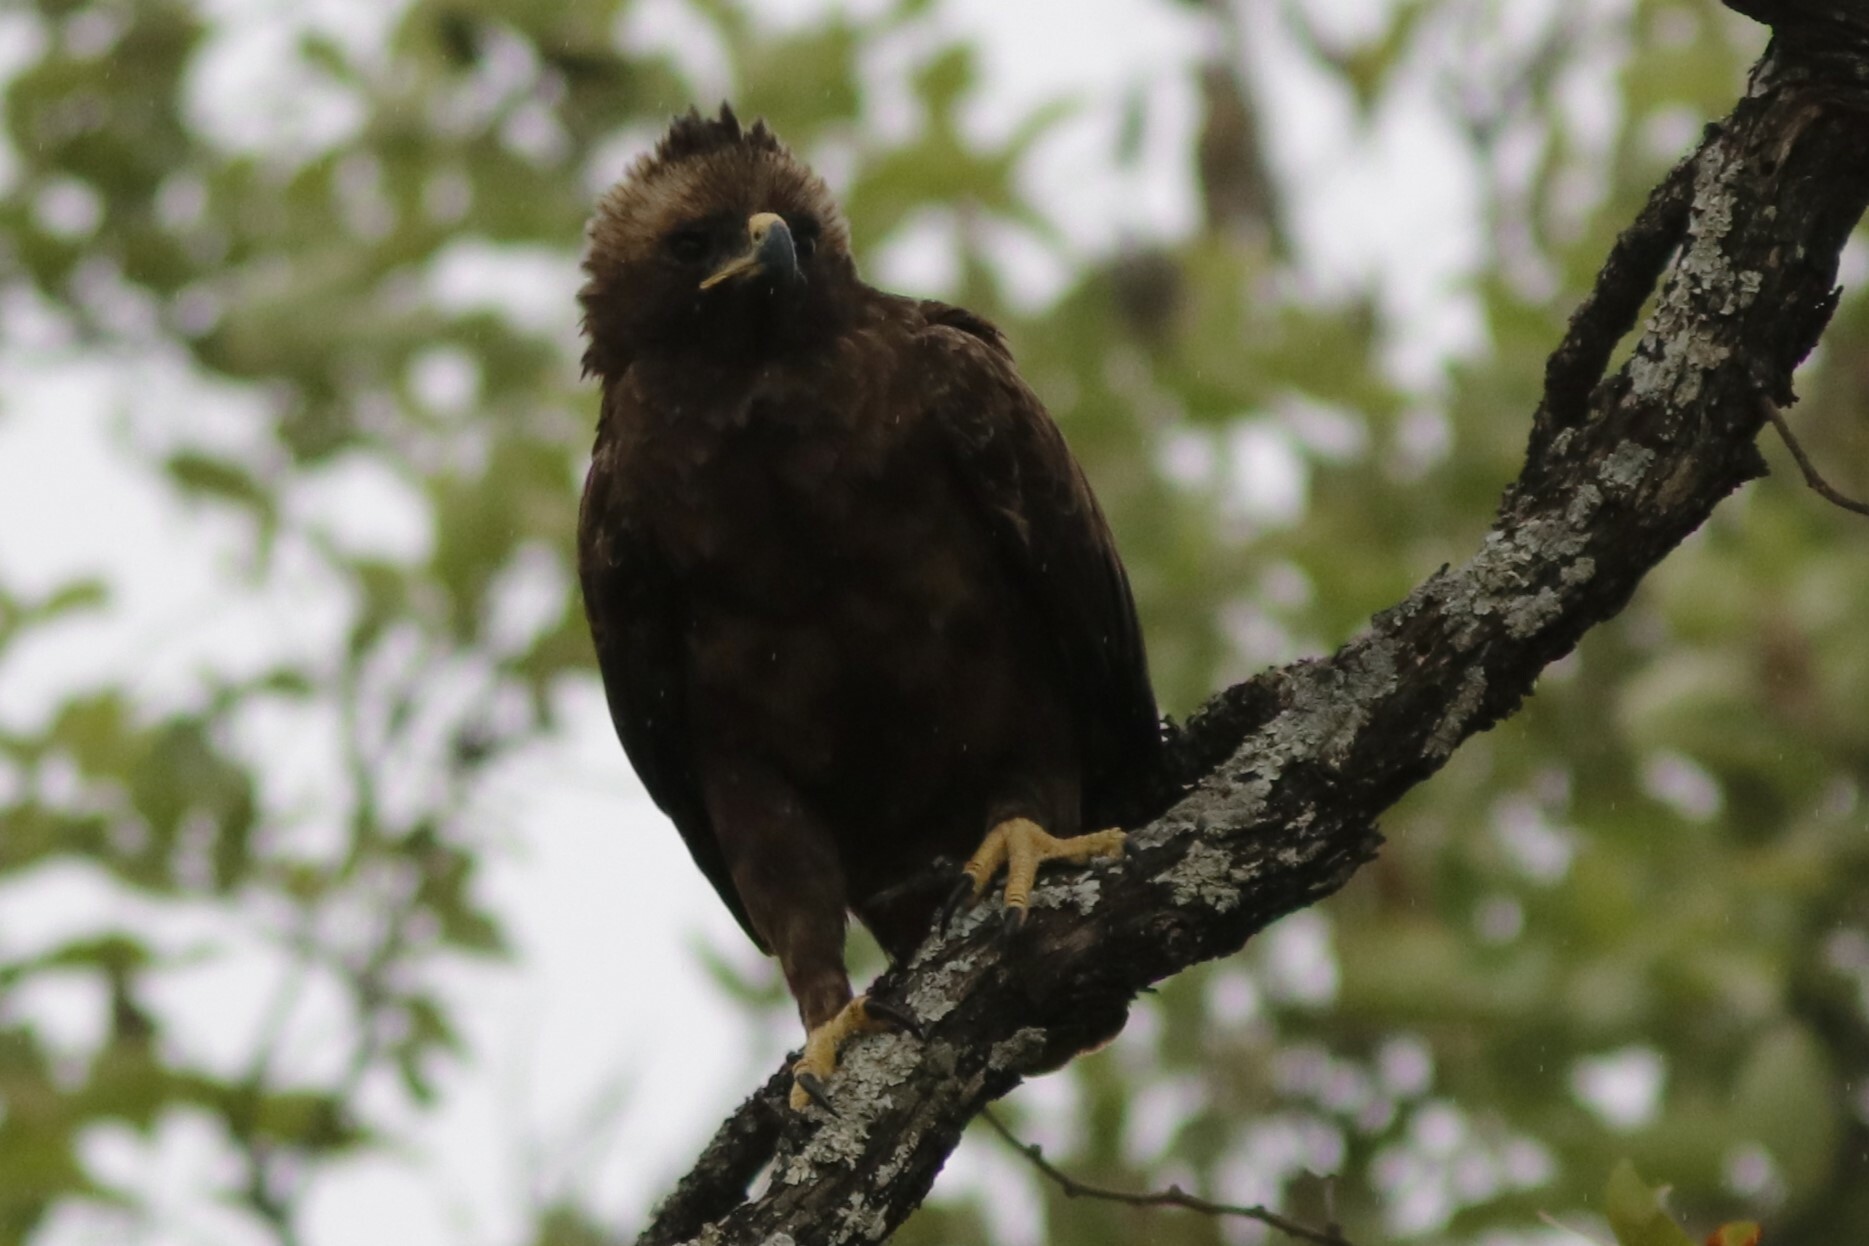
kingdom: Animalia
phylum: Chordata
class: Aves
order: Accipitriformes
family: Accipitridae
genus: Hieraaetus
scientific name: Hieraaetus wahlbergi
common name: Wahlberg's eagle
